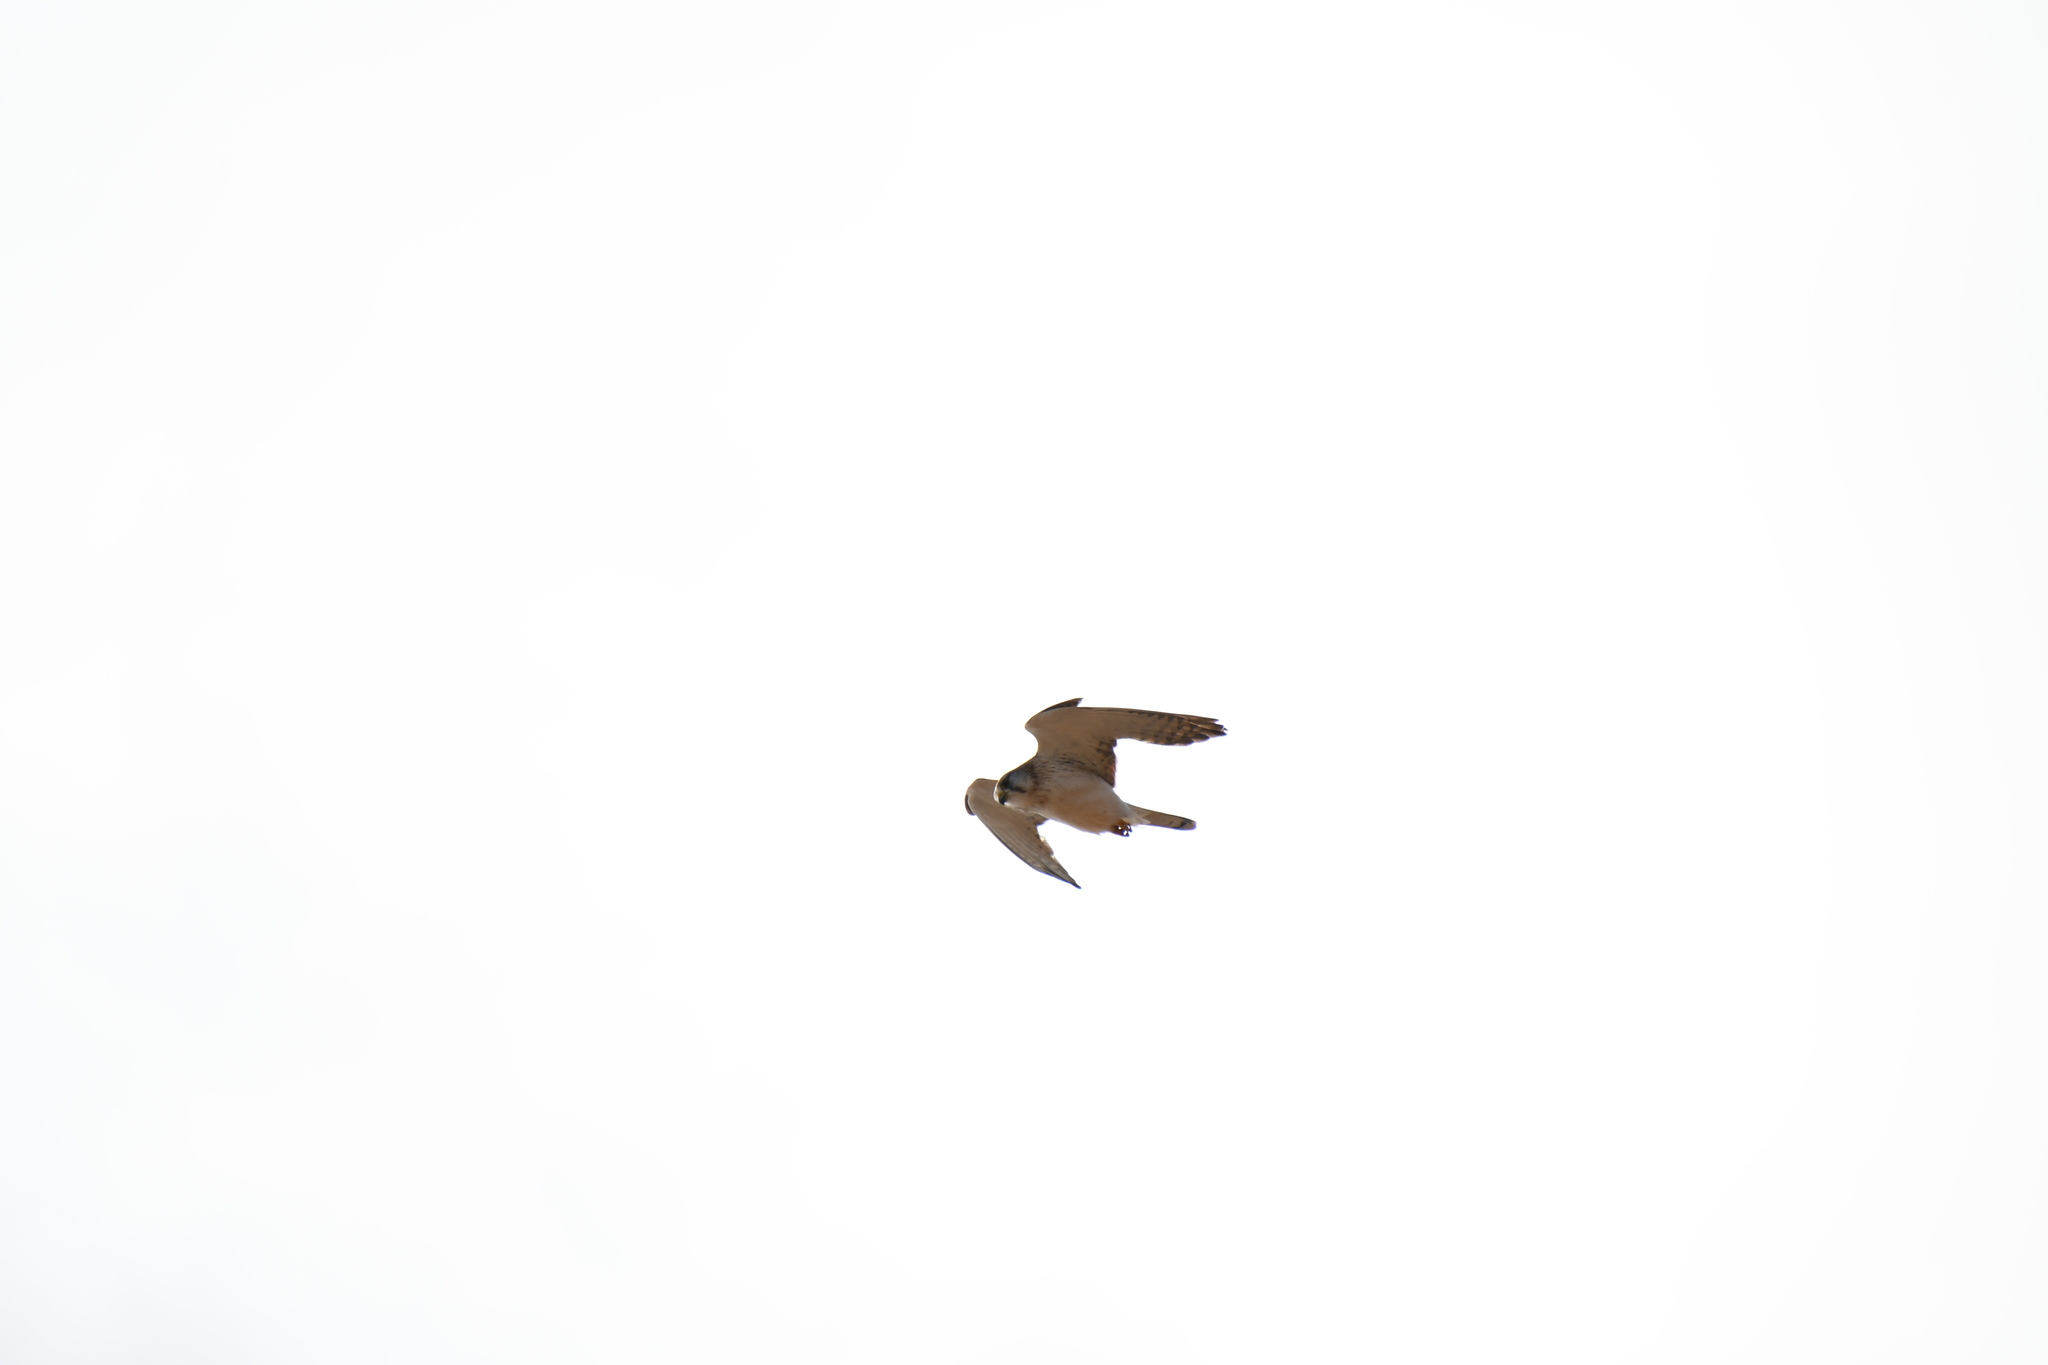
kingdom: Animalia
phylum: Chordata
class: Aves
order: Falconiformes
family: Falconidae
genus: Falco
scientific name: Falco cenchroides
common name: Nankeen kestrel
